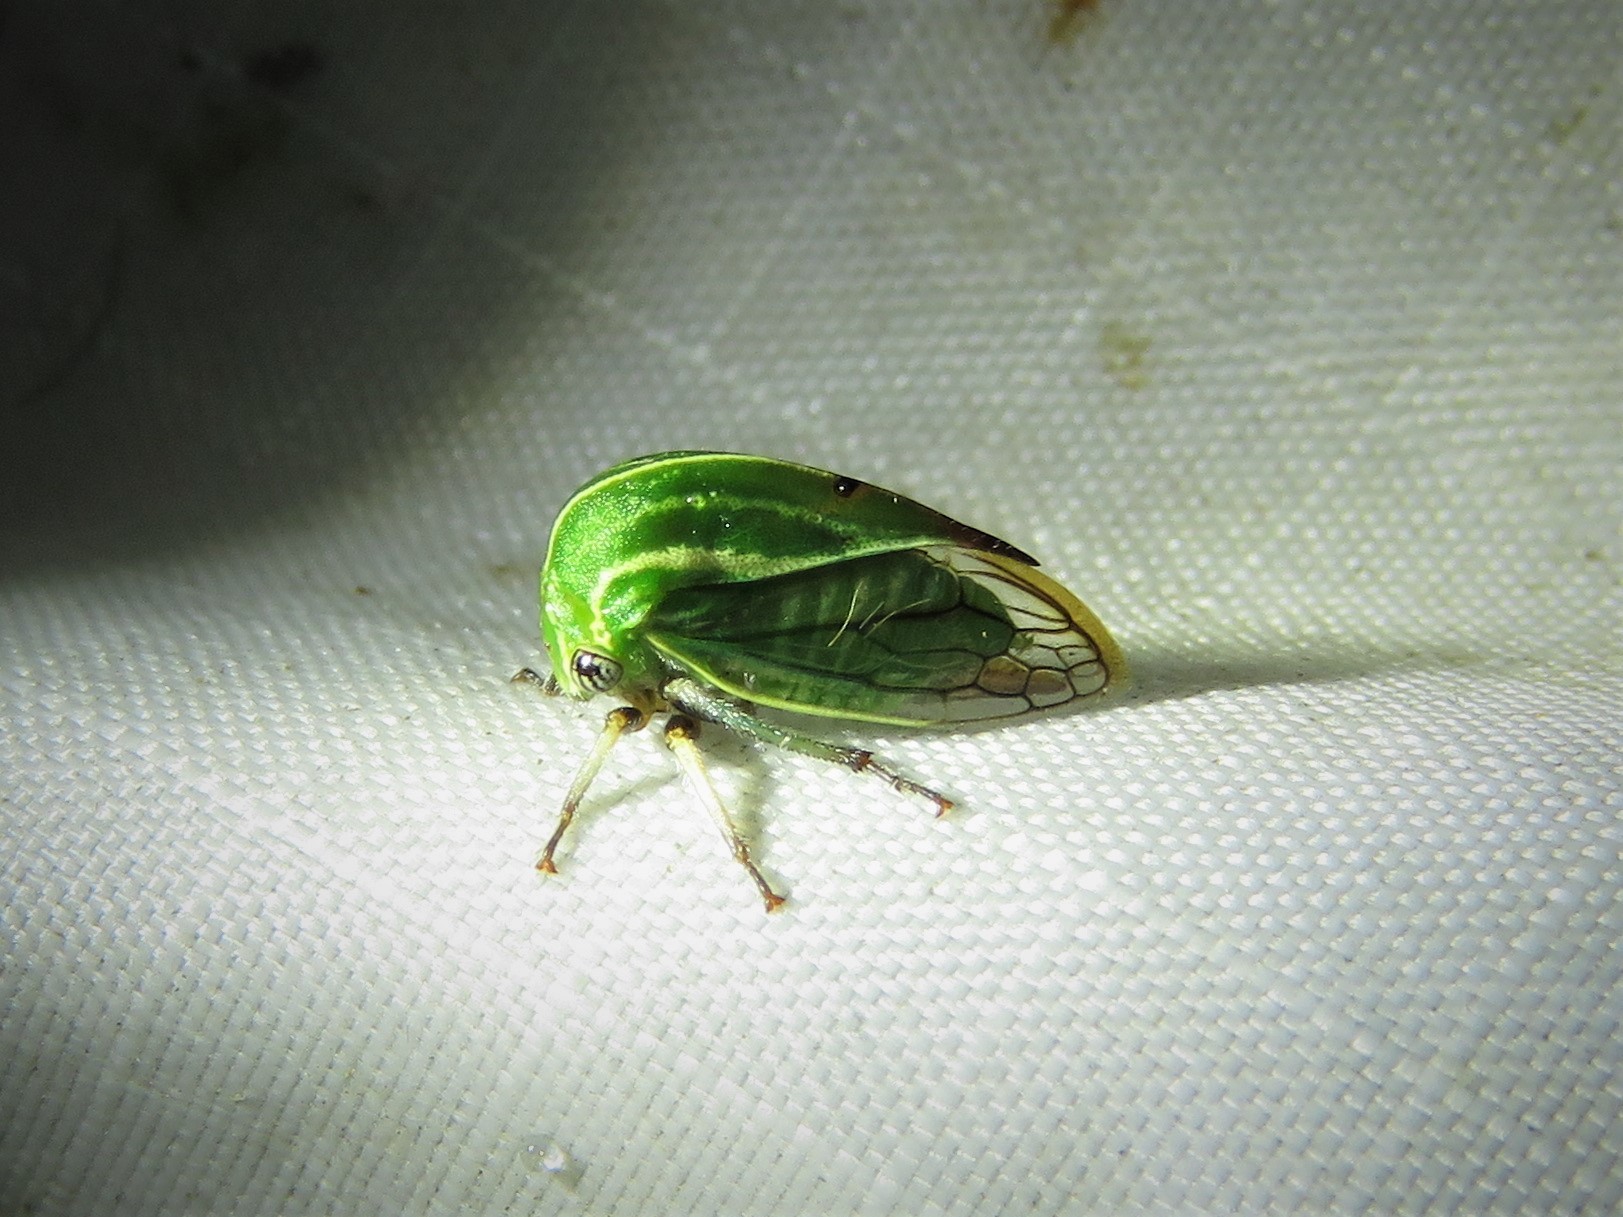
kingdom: Animalia
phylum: Arthropoda
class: Insecta
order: Hemiptera
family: Membracidae
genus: Tortistilus
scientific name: Tortistilus lateralis
